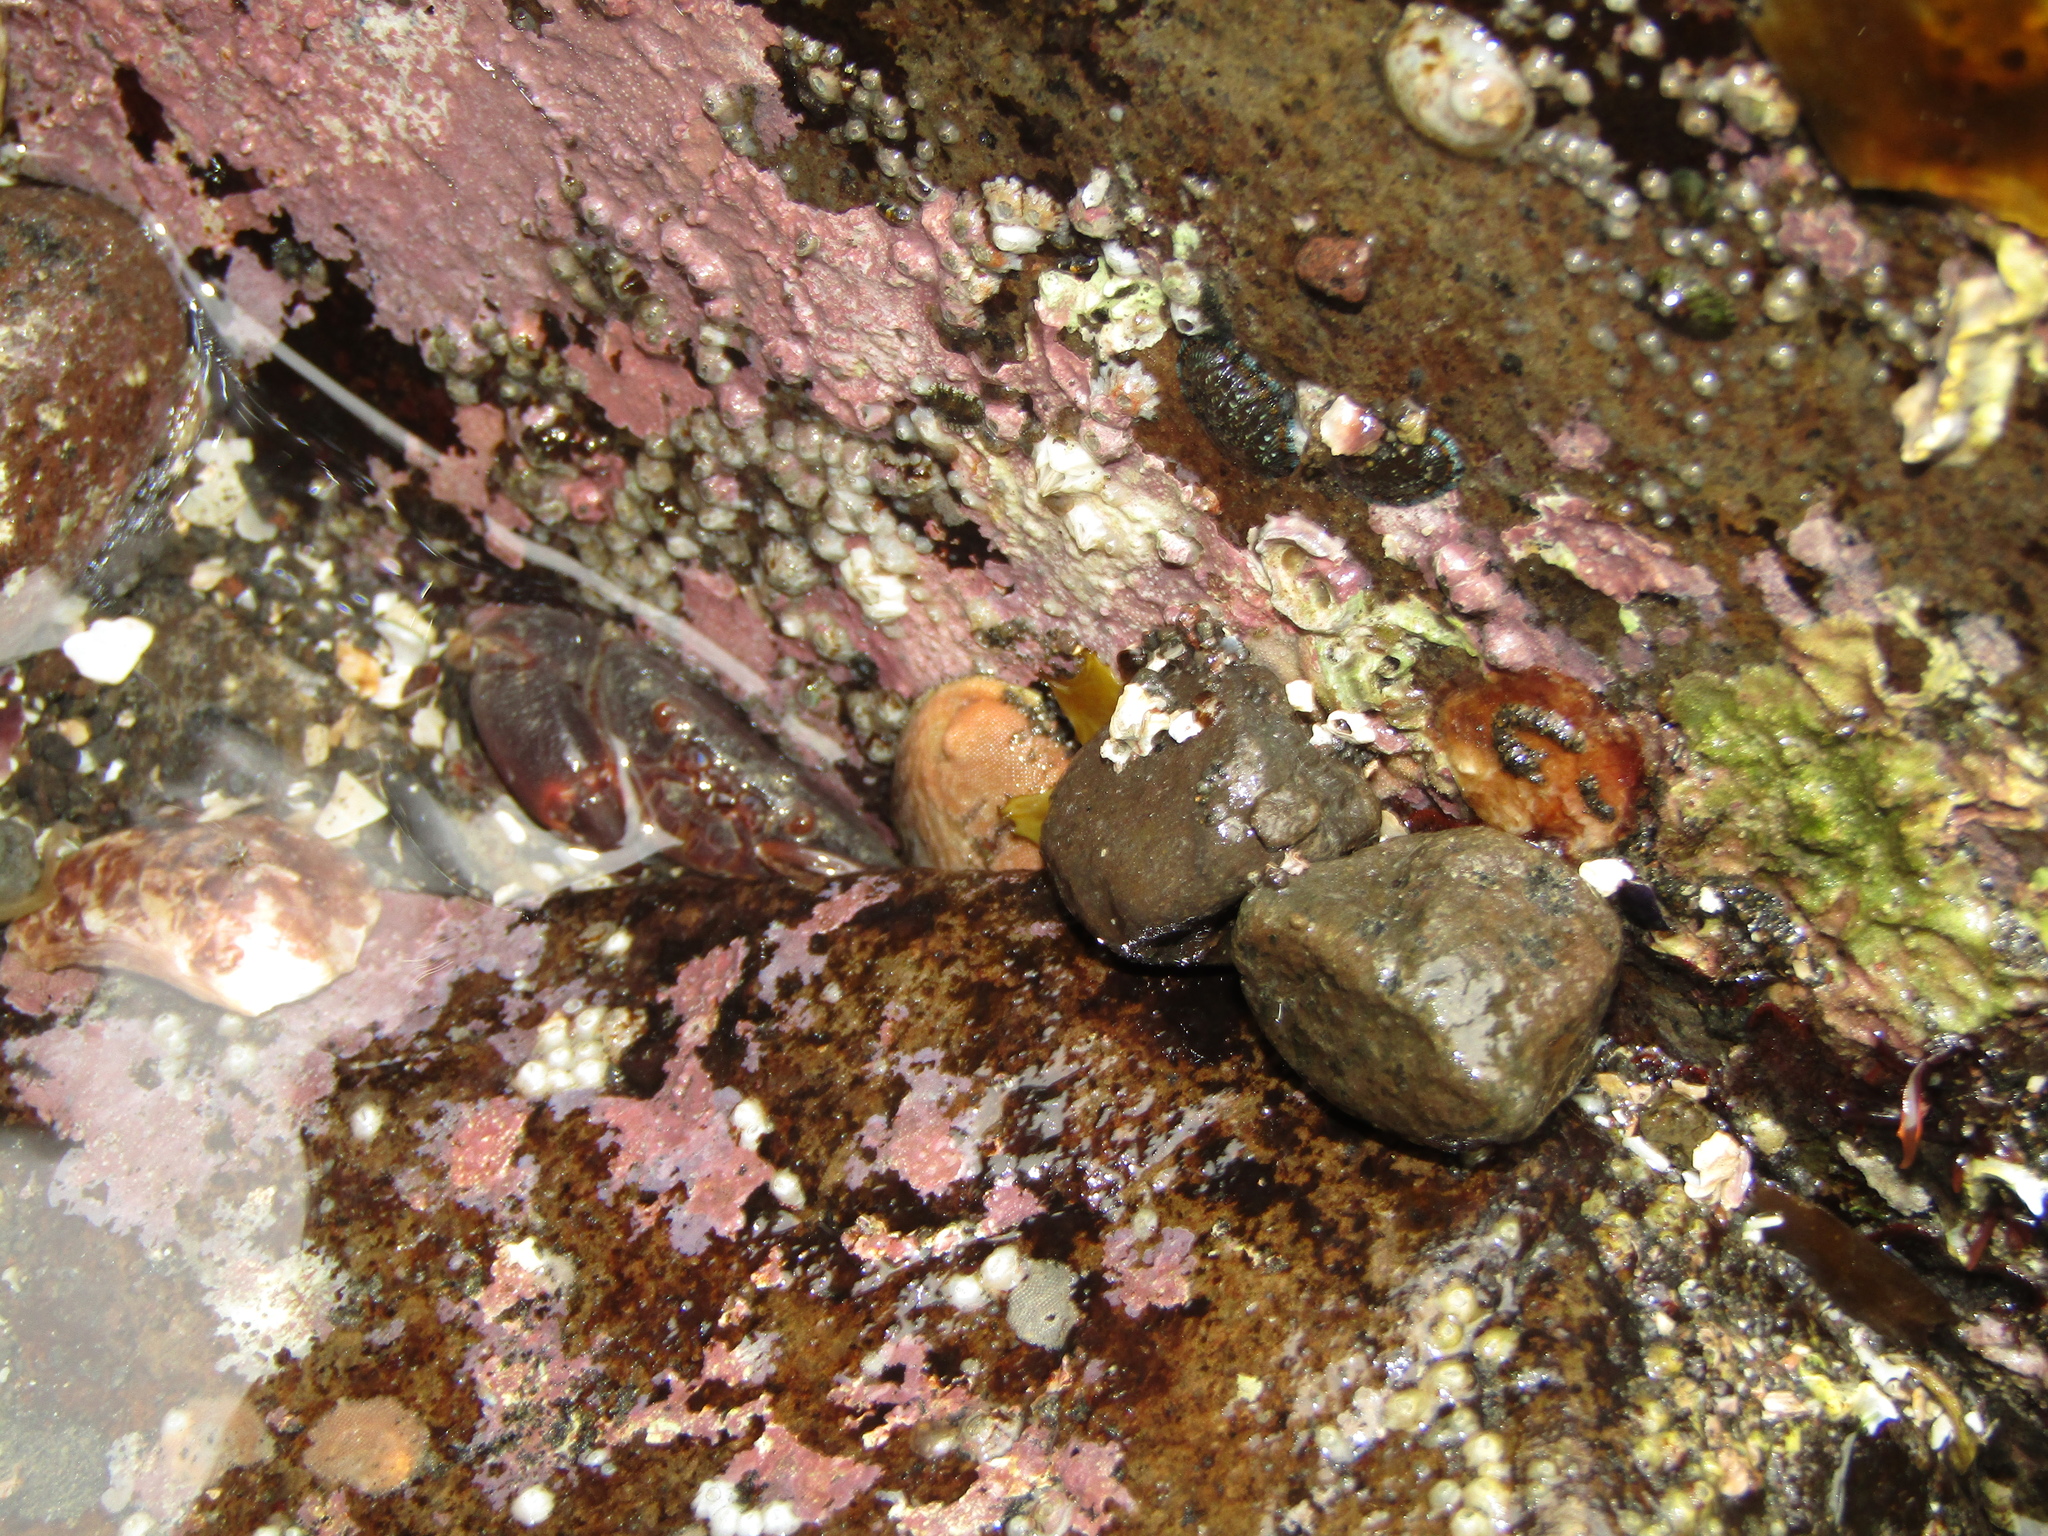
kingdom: Animalia
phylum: Mollusca
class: Gastropoda
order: Lepetellida
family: Haliotidae
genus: Haliotis
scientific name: Haliotis iris
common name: Abalone
